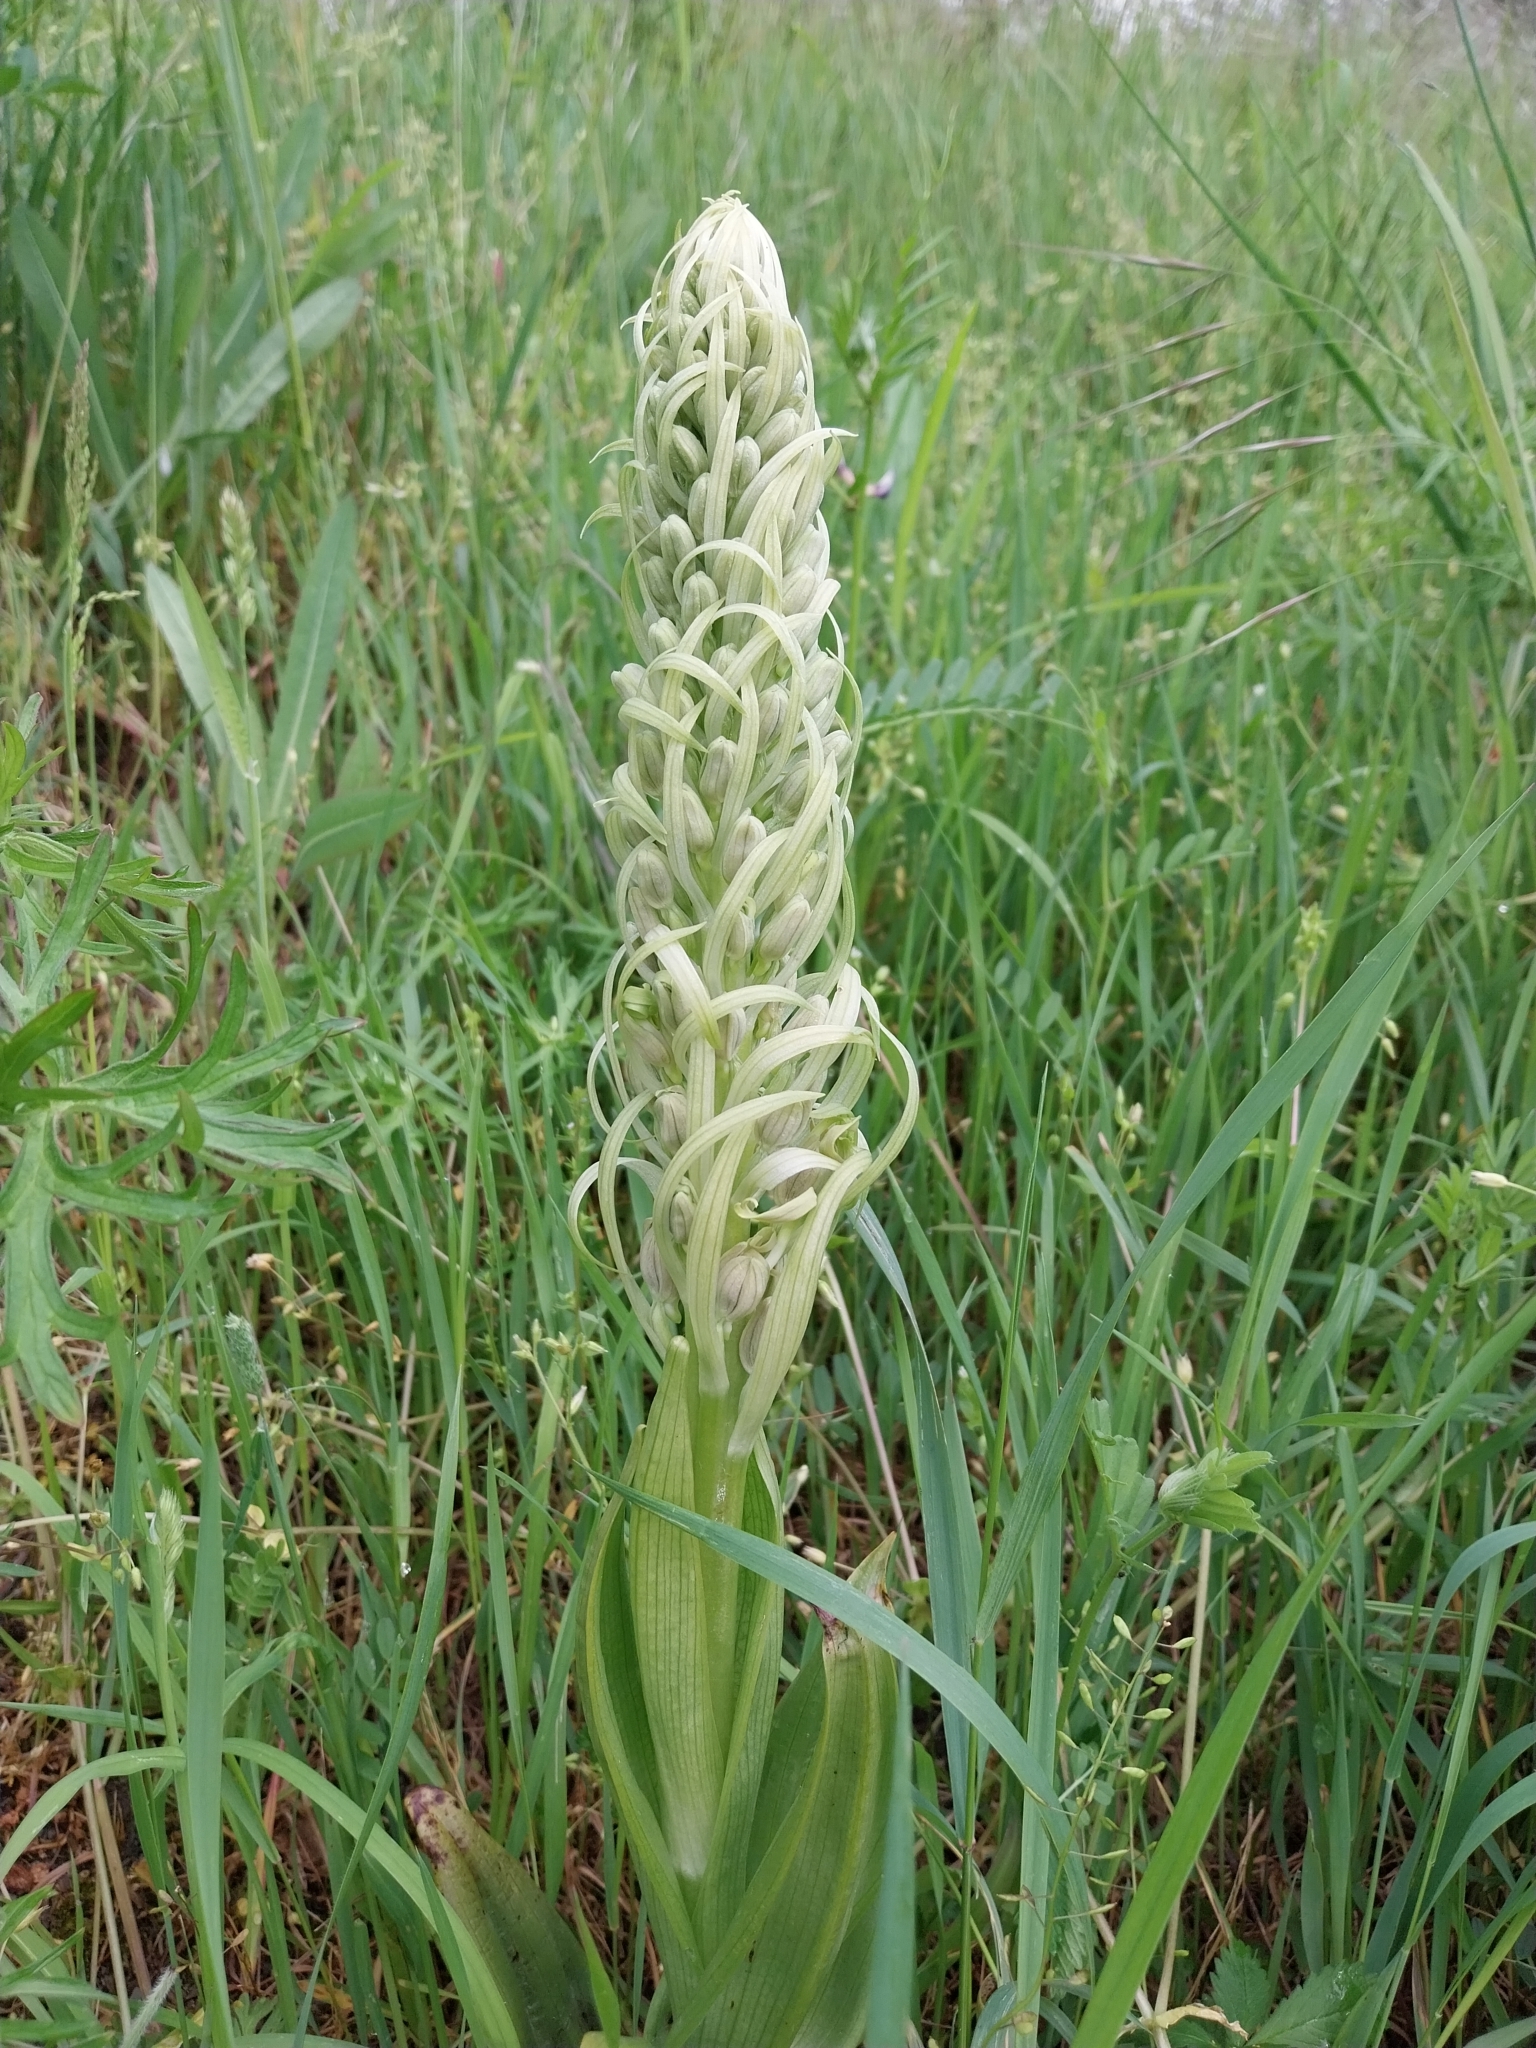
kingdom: Plantae
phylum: Tracheophyta
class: Liliopsida
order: Asparagales
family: Orchidaceae
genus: Himantoglossum
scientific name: Himantoglossum hircinum
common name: Lizard orchid
